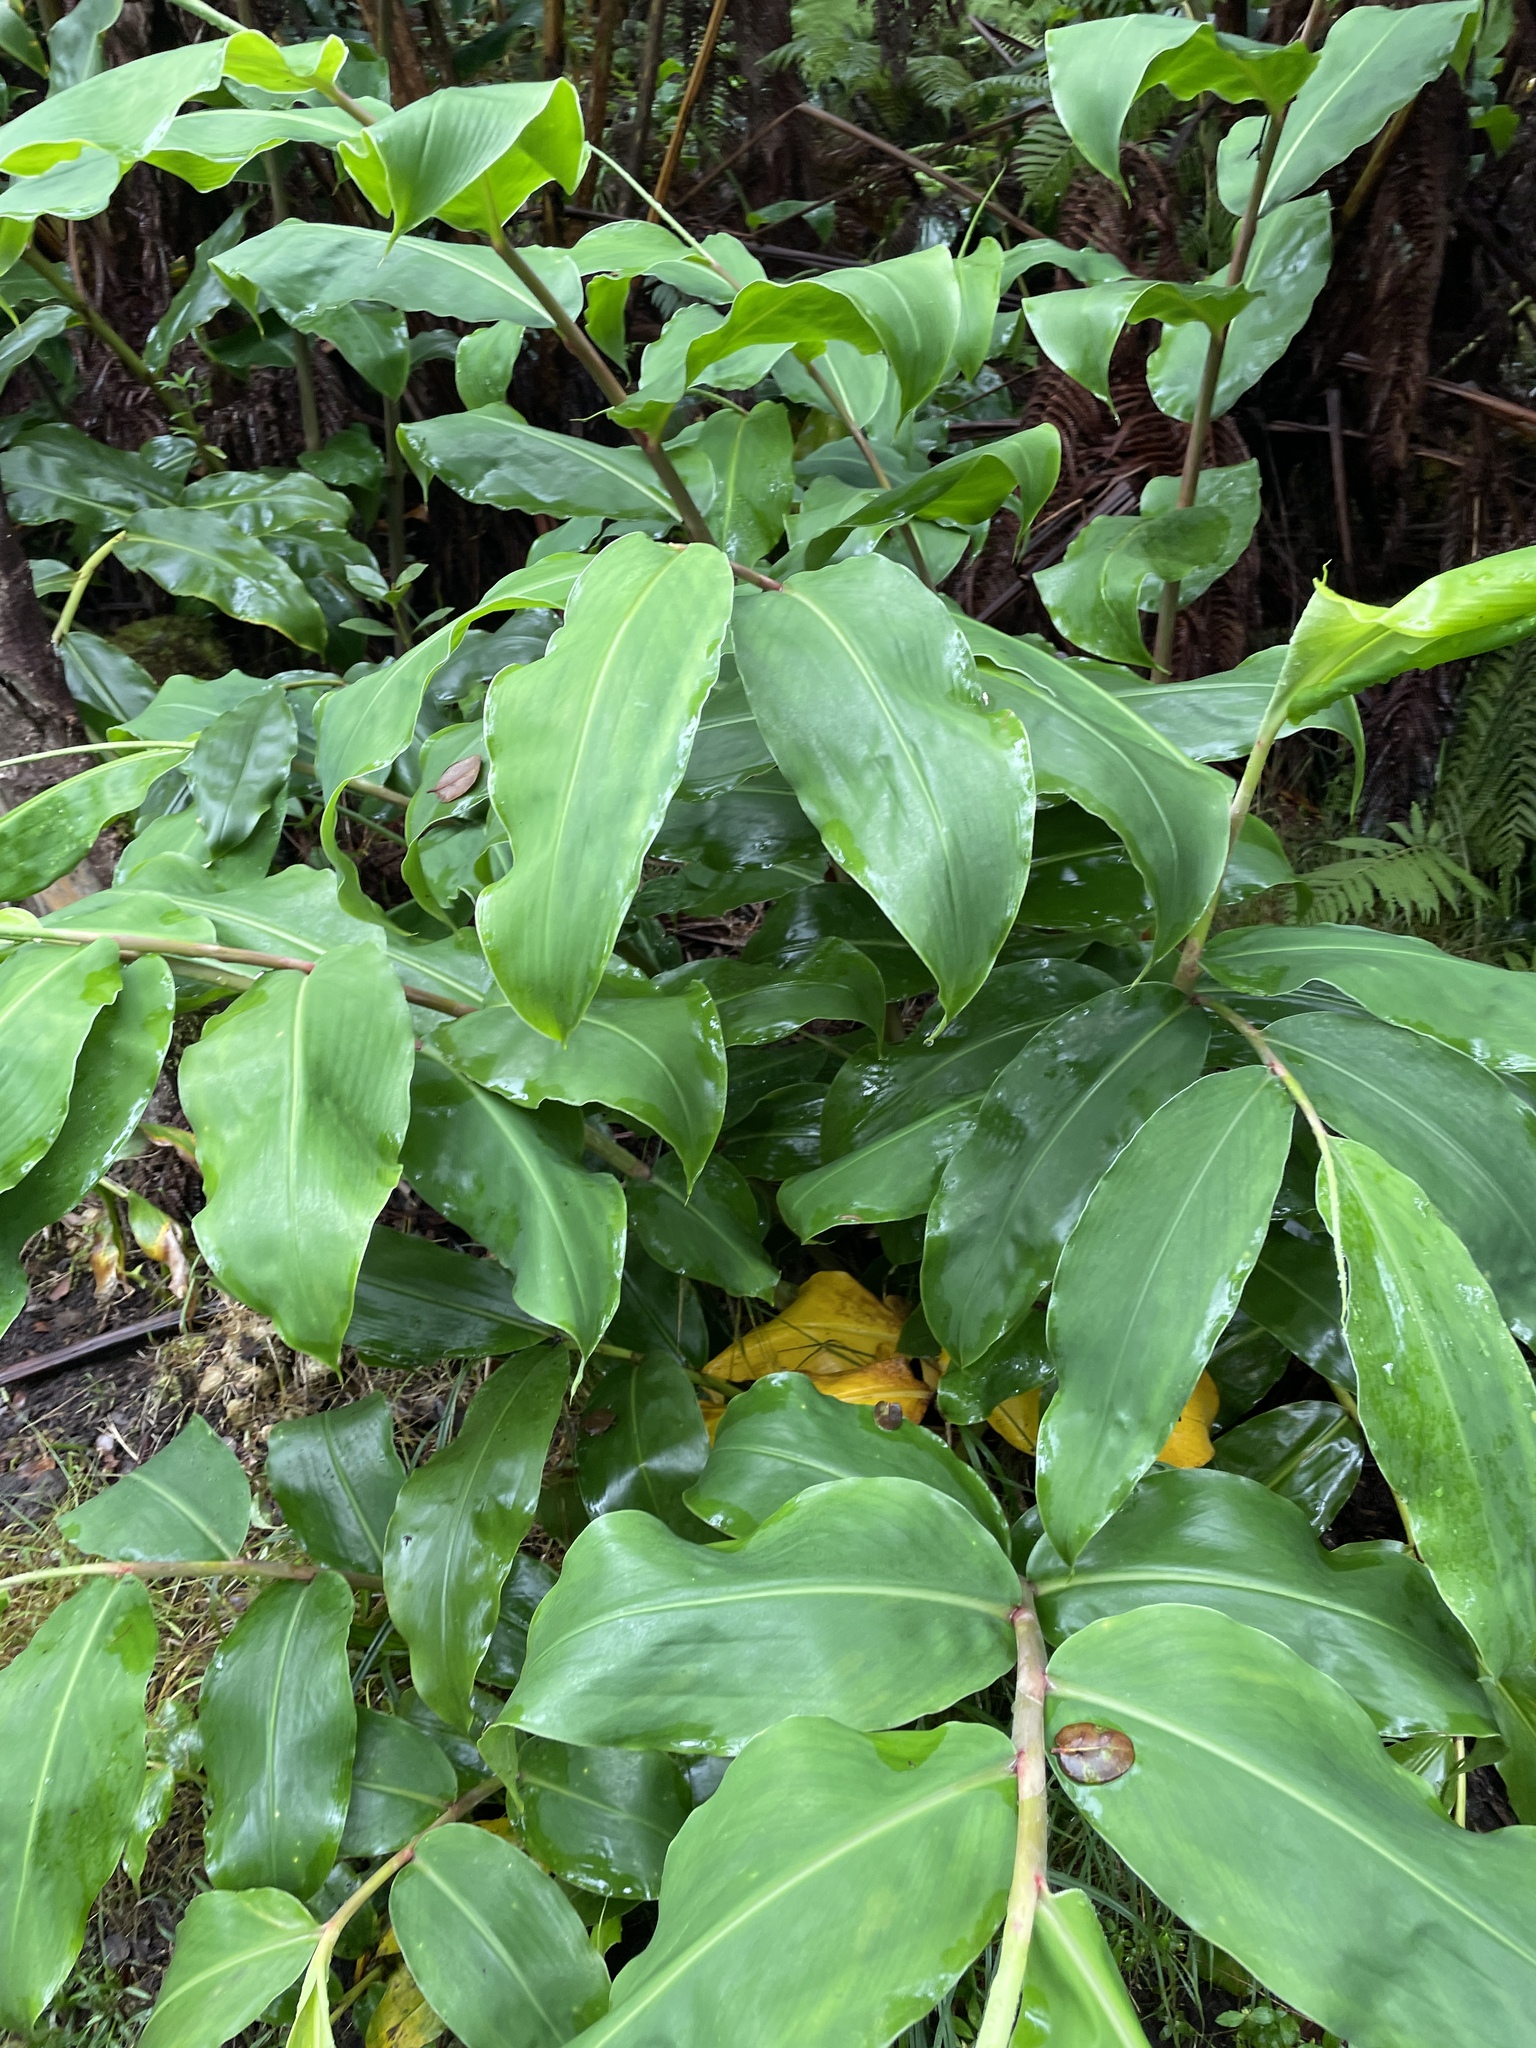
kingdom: Plantae
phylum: Tracheophyta
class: Liliopsida
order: Zingiberales
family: Zingiberaceae
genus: Hedychium
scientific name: Hedychium gardnerianum
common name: Himalayan ginger
